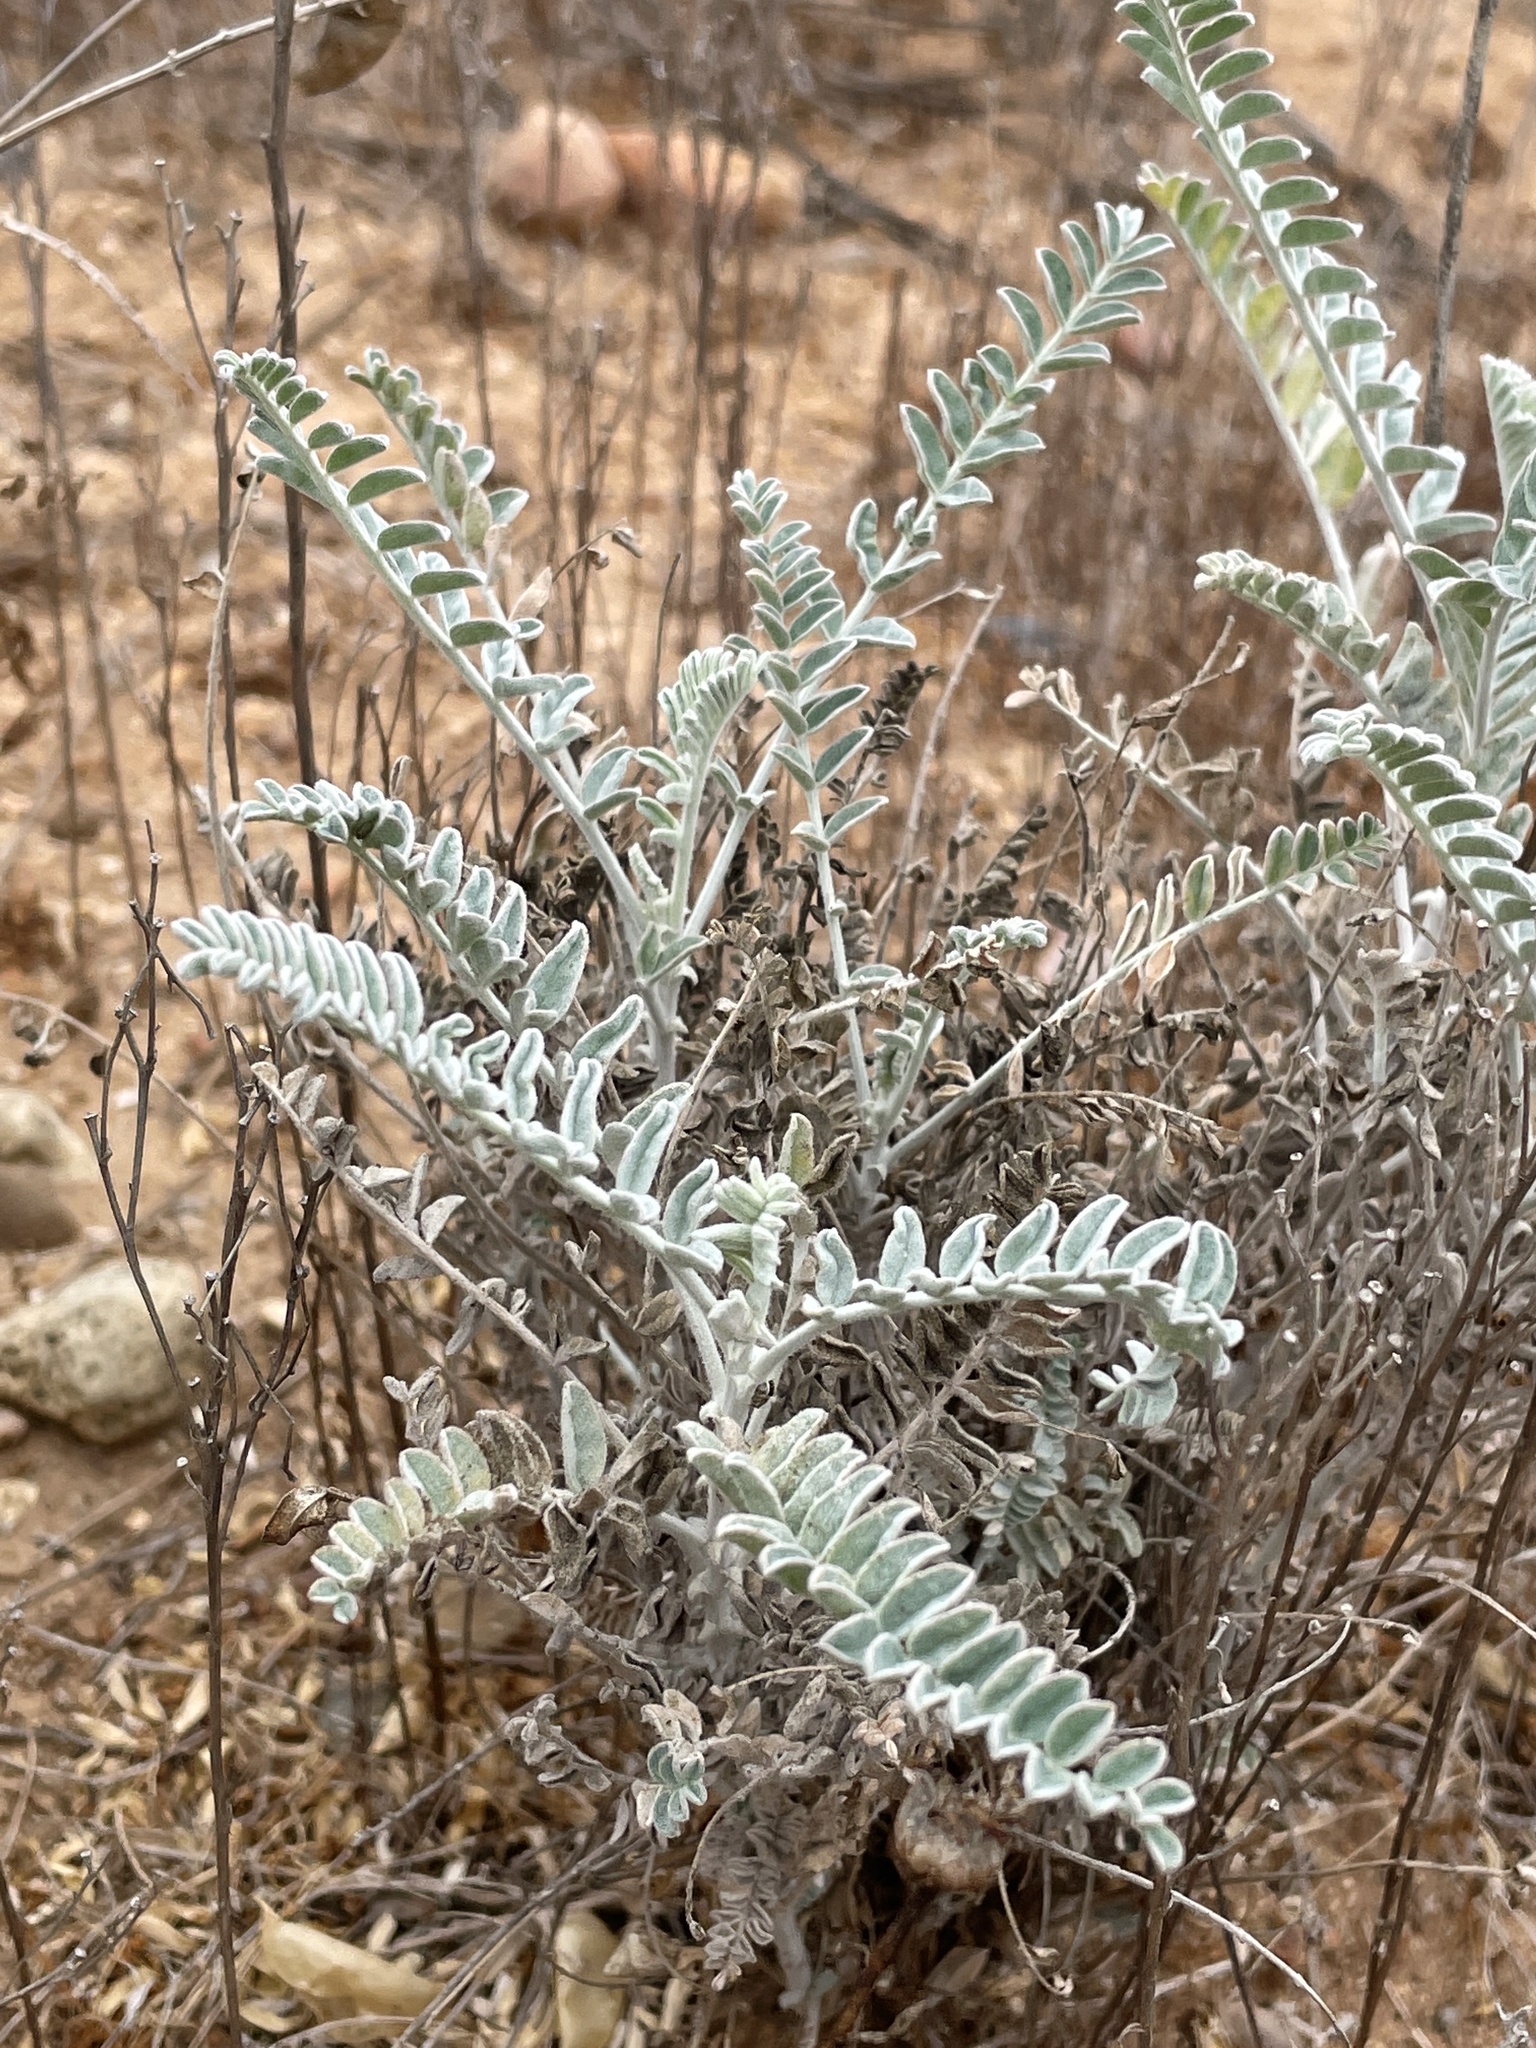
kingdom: Plantae
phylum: Tracheophyta
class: Magnoliopsida
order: Fabales
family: Fabaceae
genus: Astragalus
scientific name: Astragalus trichopodus
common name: Santa barbara milk-vetch
